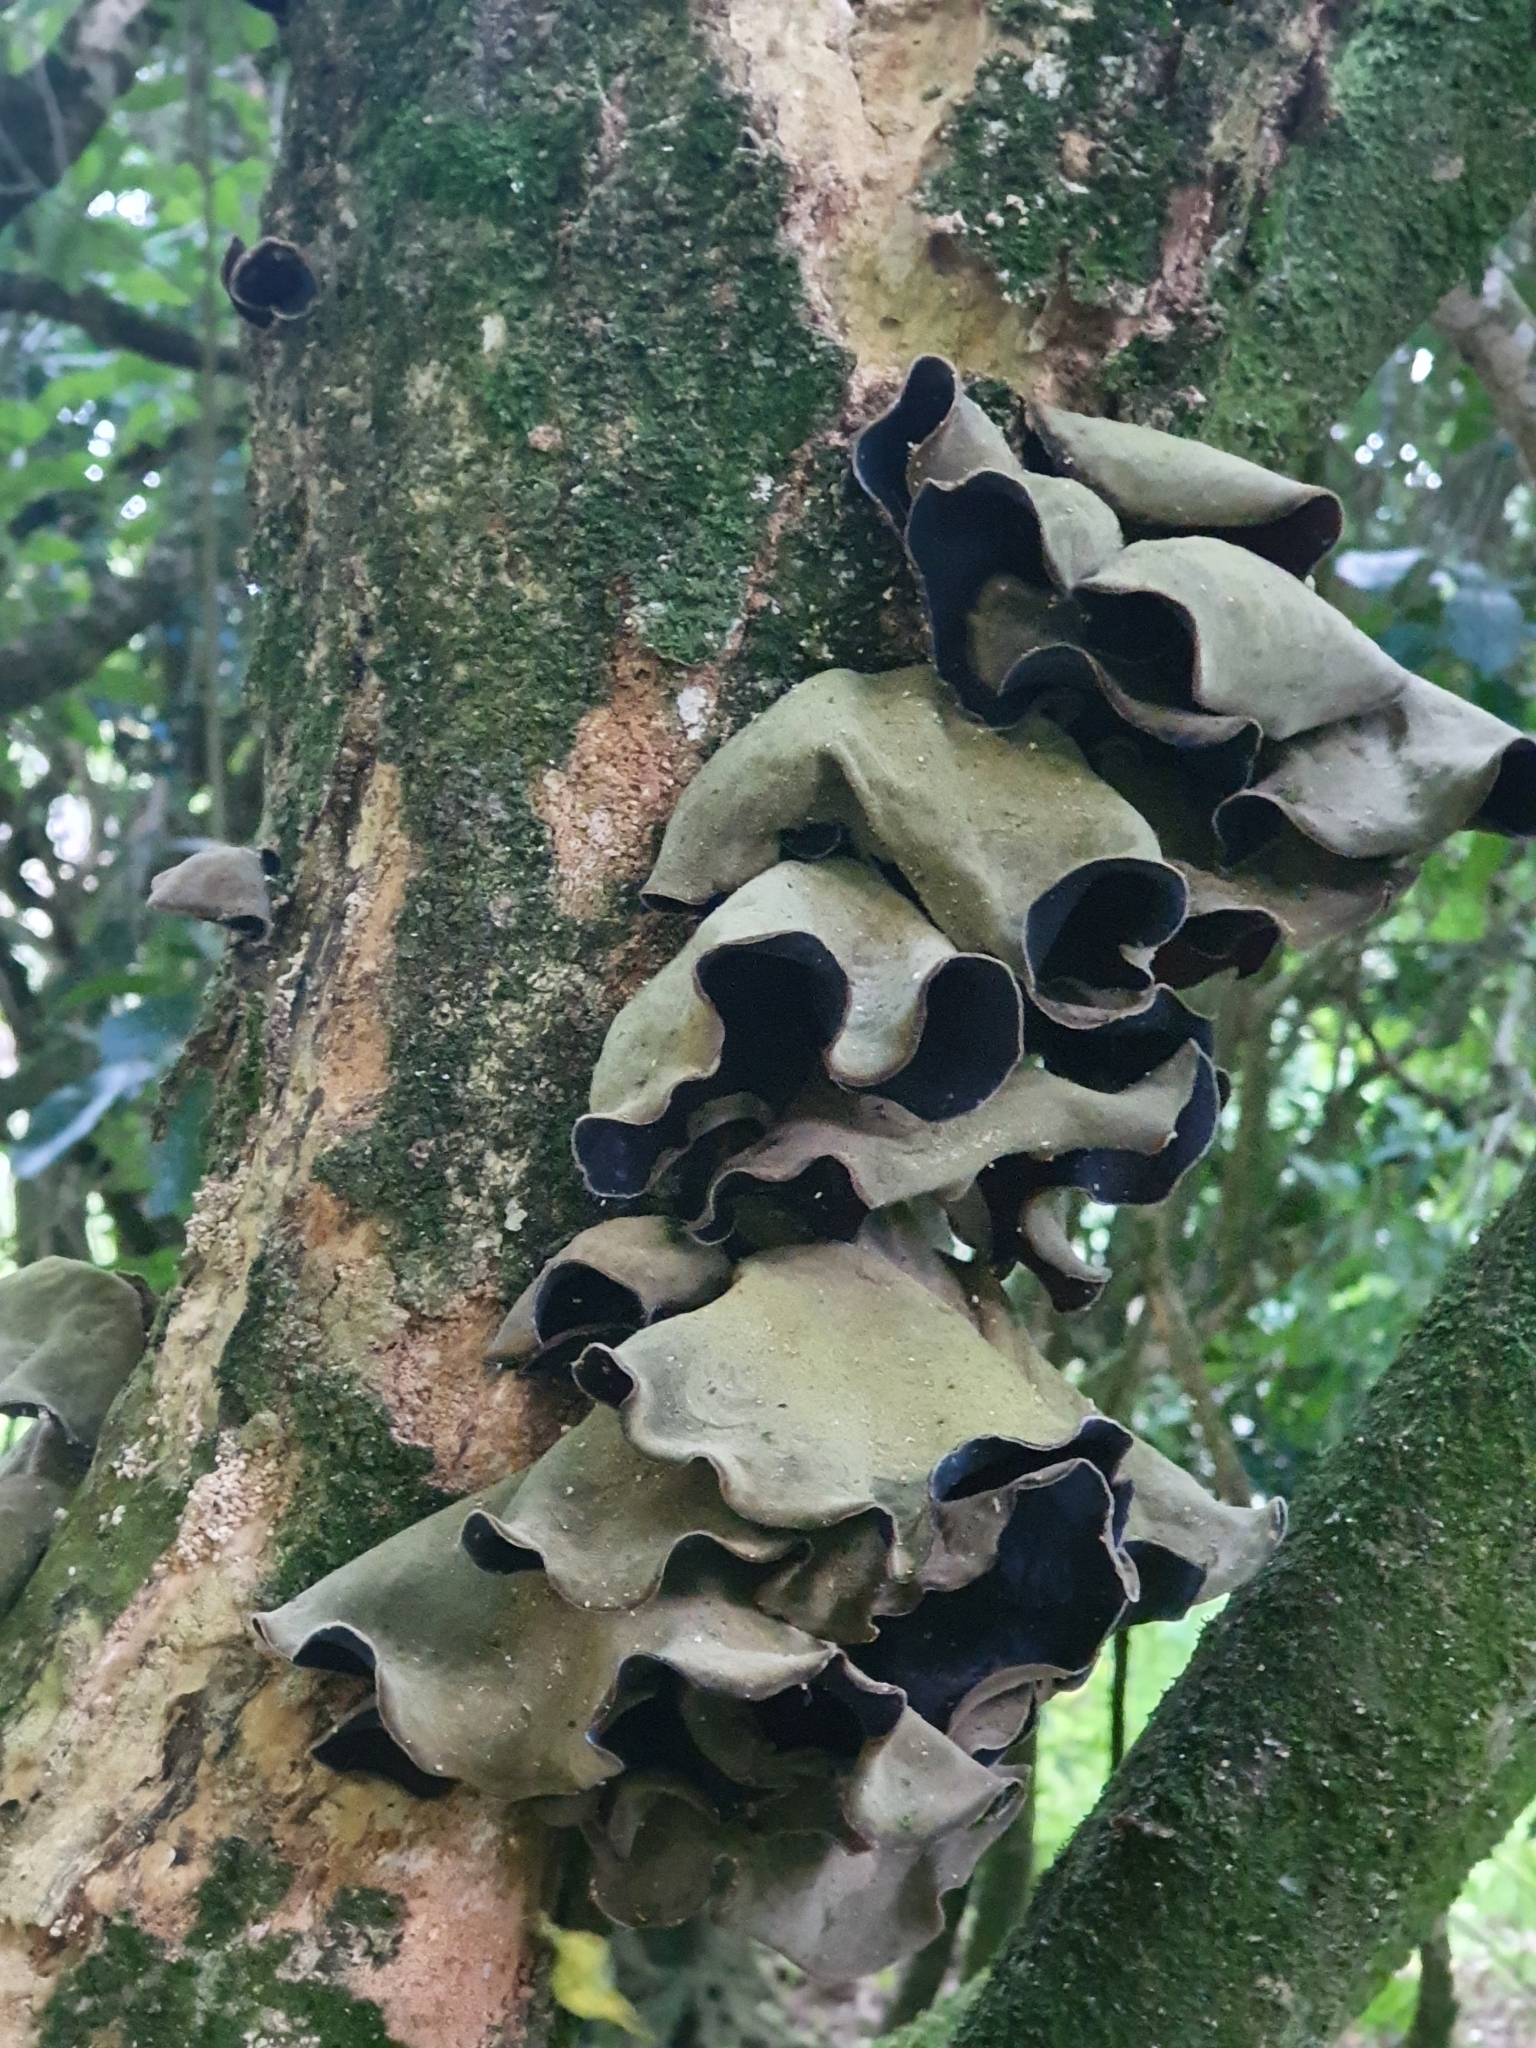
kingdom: Fungi
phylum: Basidiomycota
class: Agaricomycetes
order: Auriculariales
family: Auriculariaceae
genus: Auricularia
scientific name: Auricularia cornea
